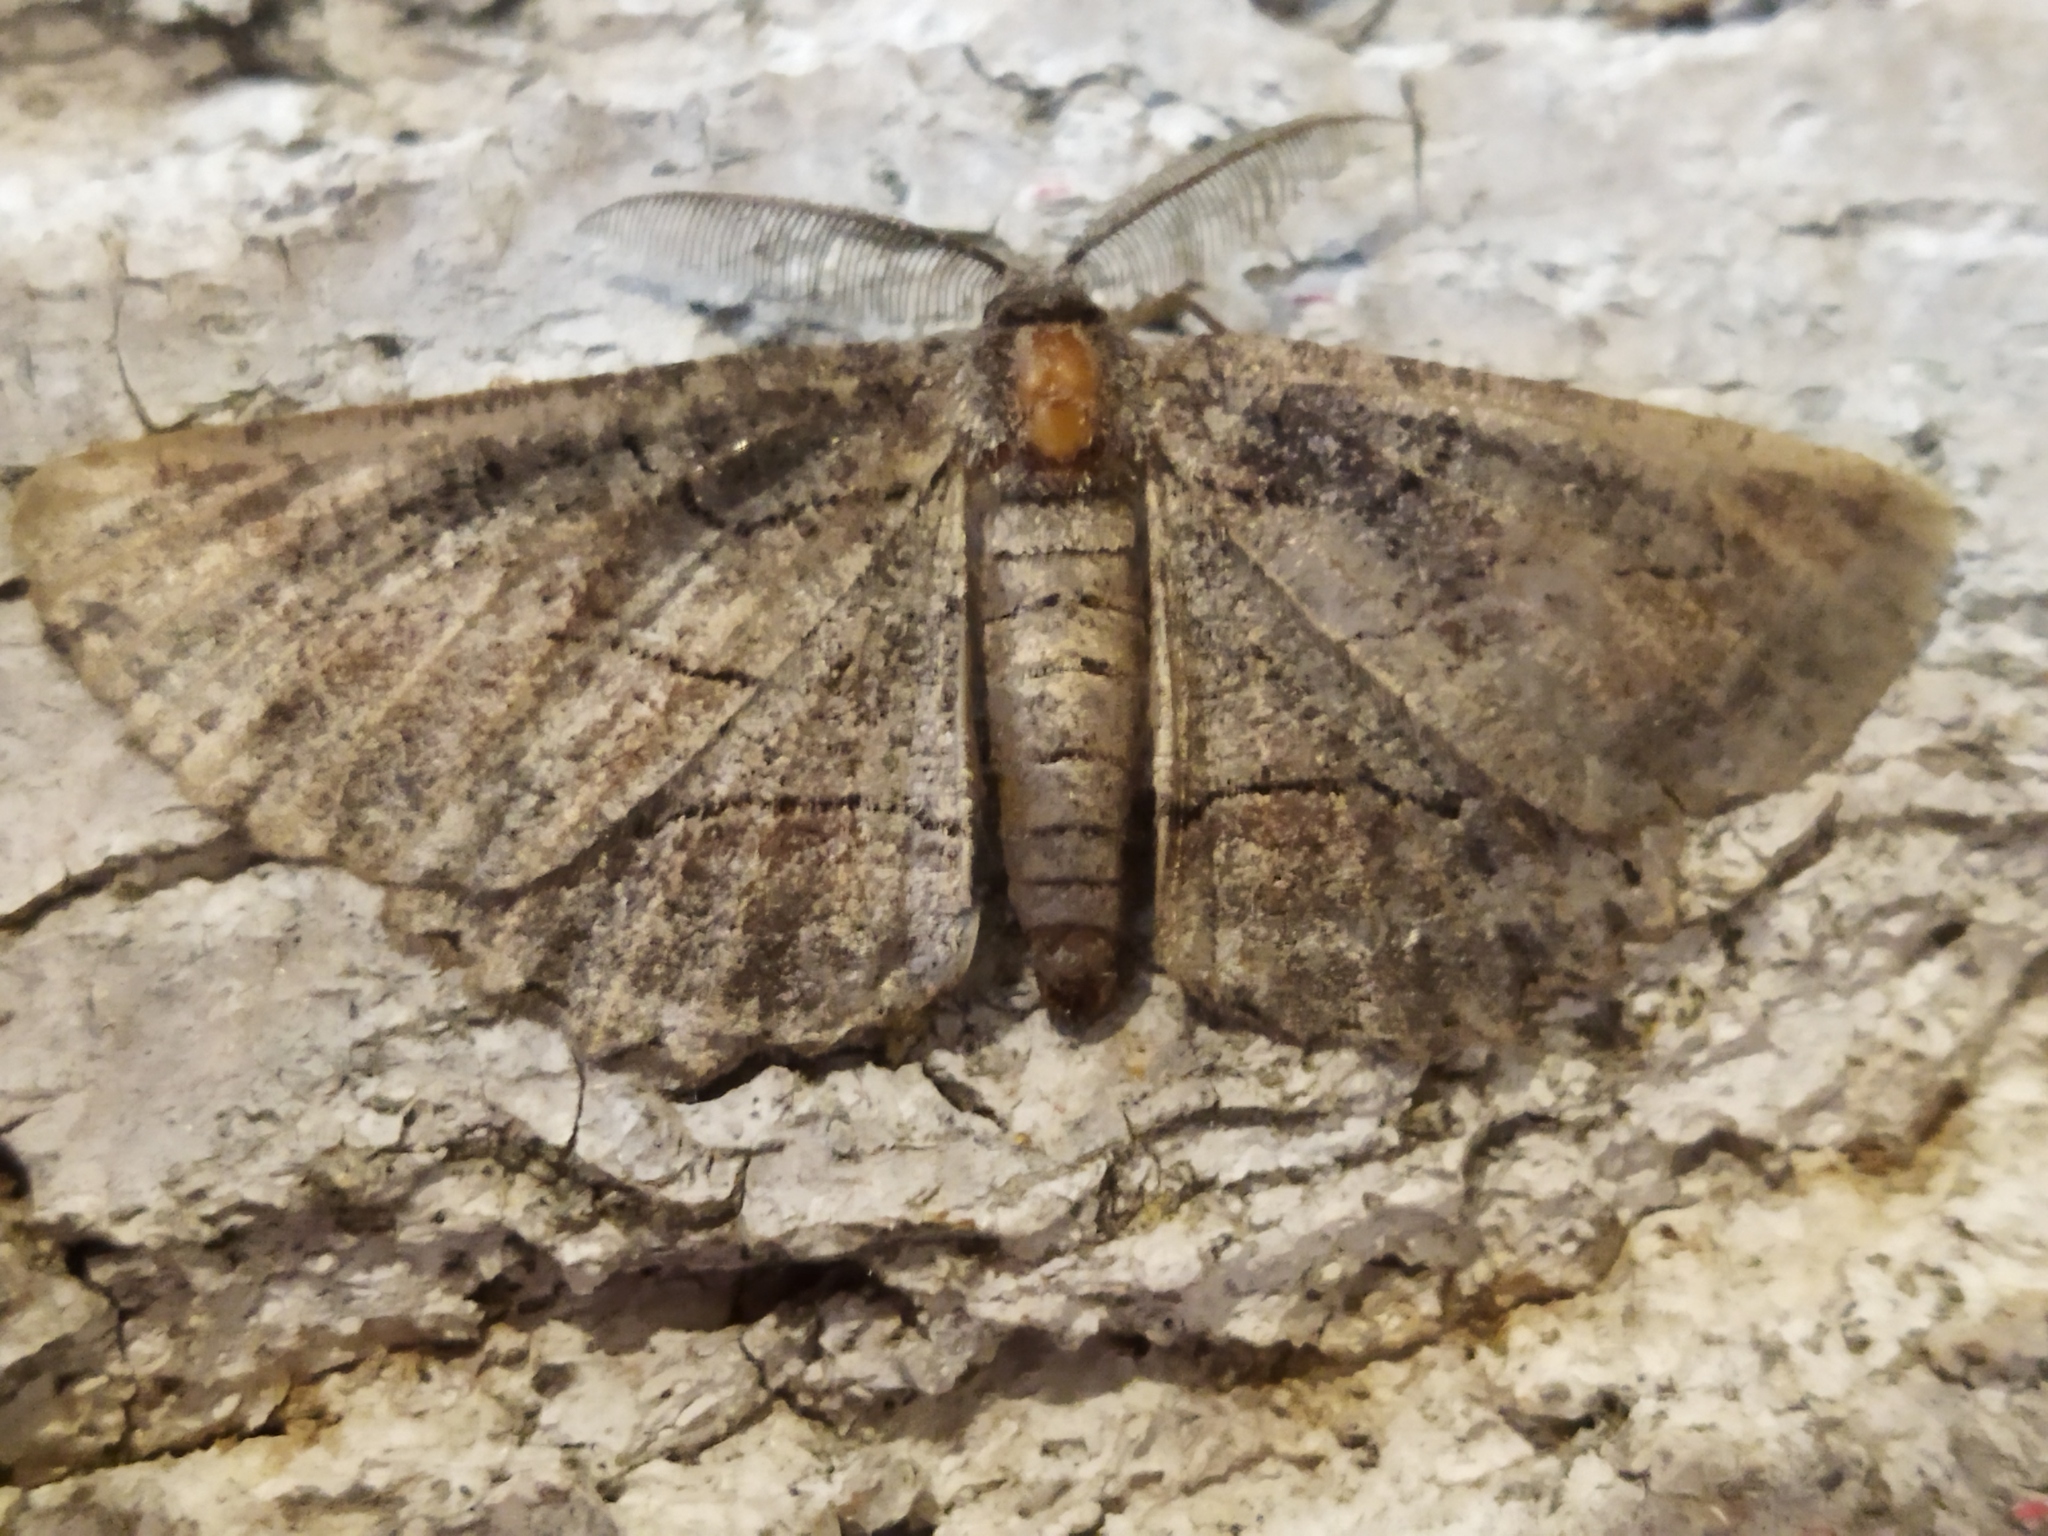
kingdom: Animalia
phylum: Arthropoda
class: Insecta
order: Lepidoptera
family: Geometridae
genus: Nychiodes
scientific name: Nychiodes waltheri
